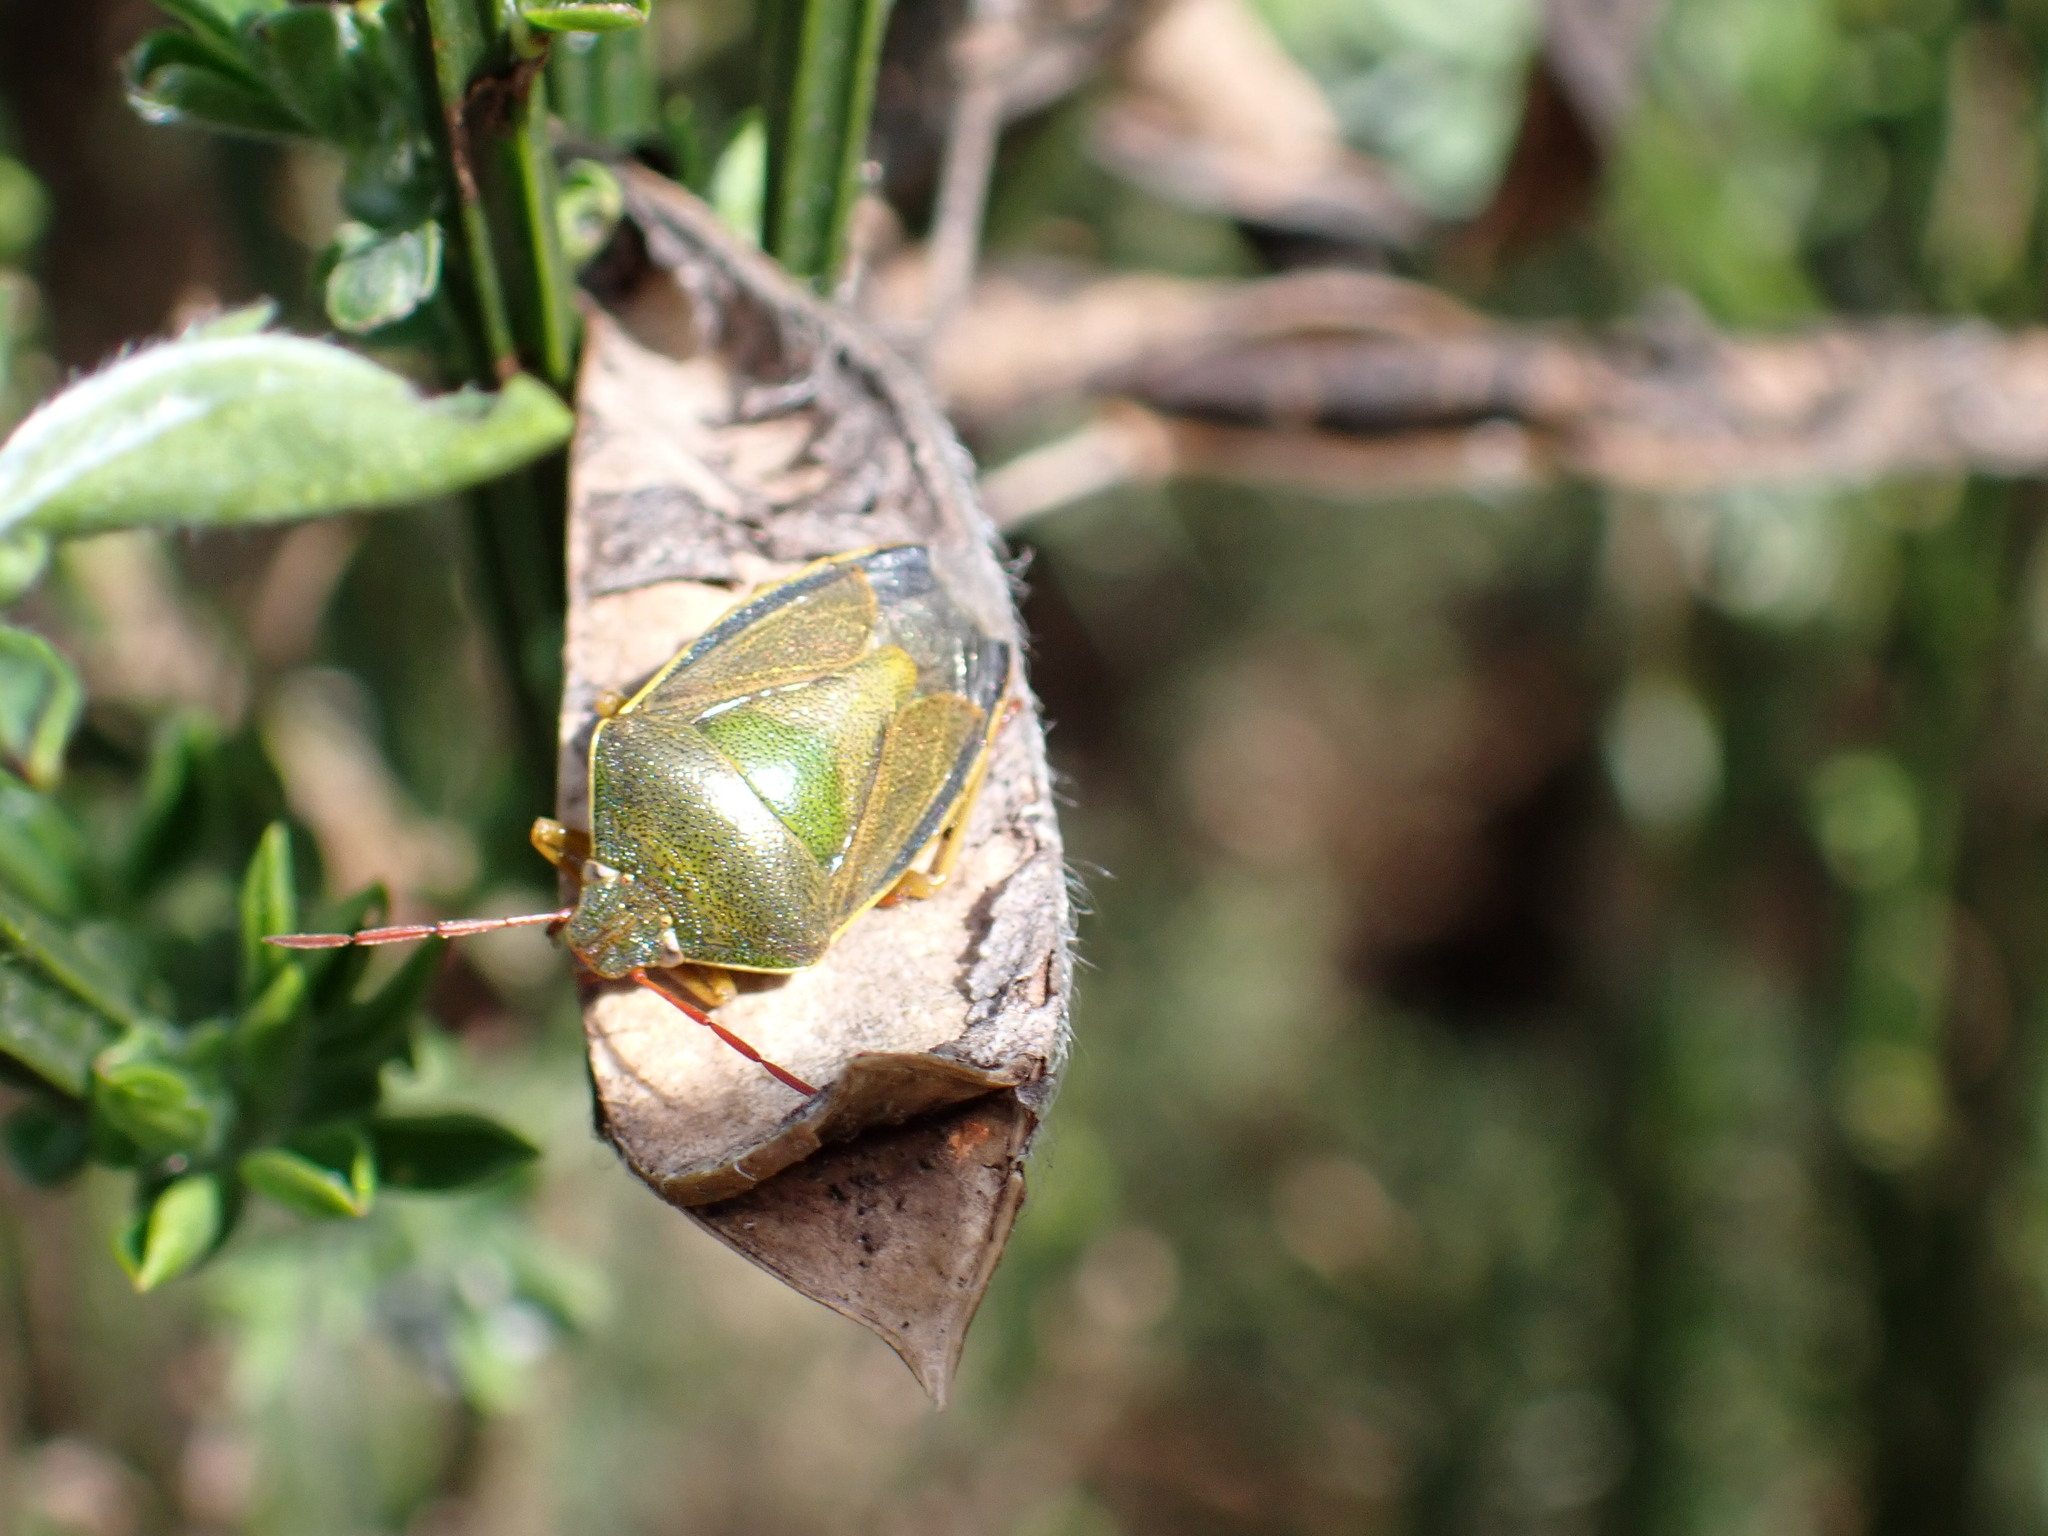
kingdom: Animalia
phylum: Arthropoda
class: Insecta
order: Hemiptera
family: Pentatomidae
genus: Piezodorus
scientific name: Piezodorus lituratus
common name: Stink bug
